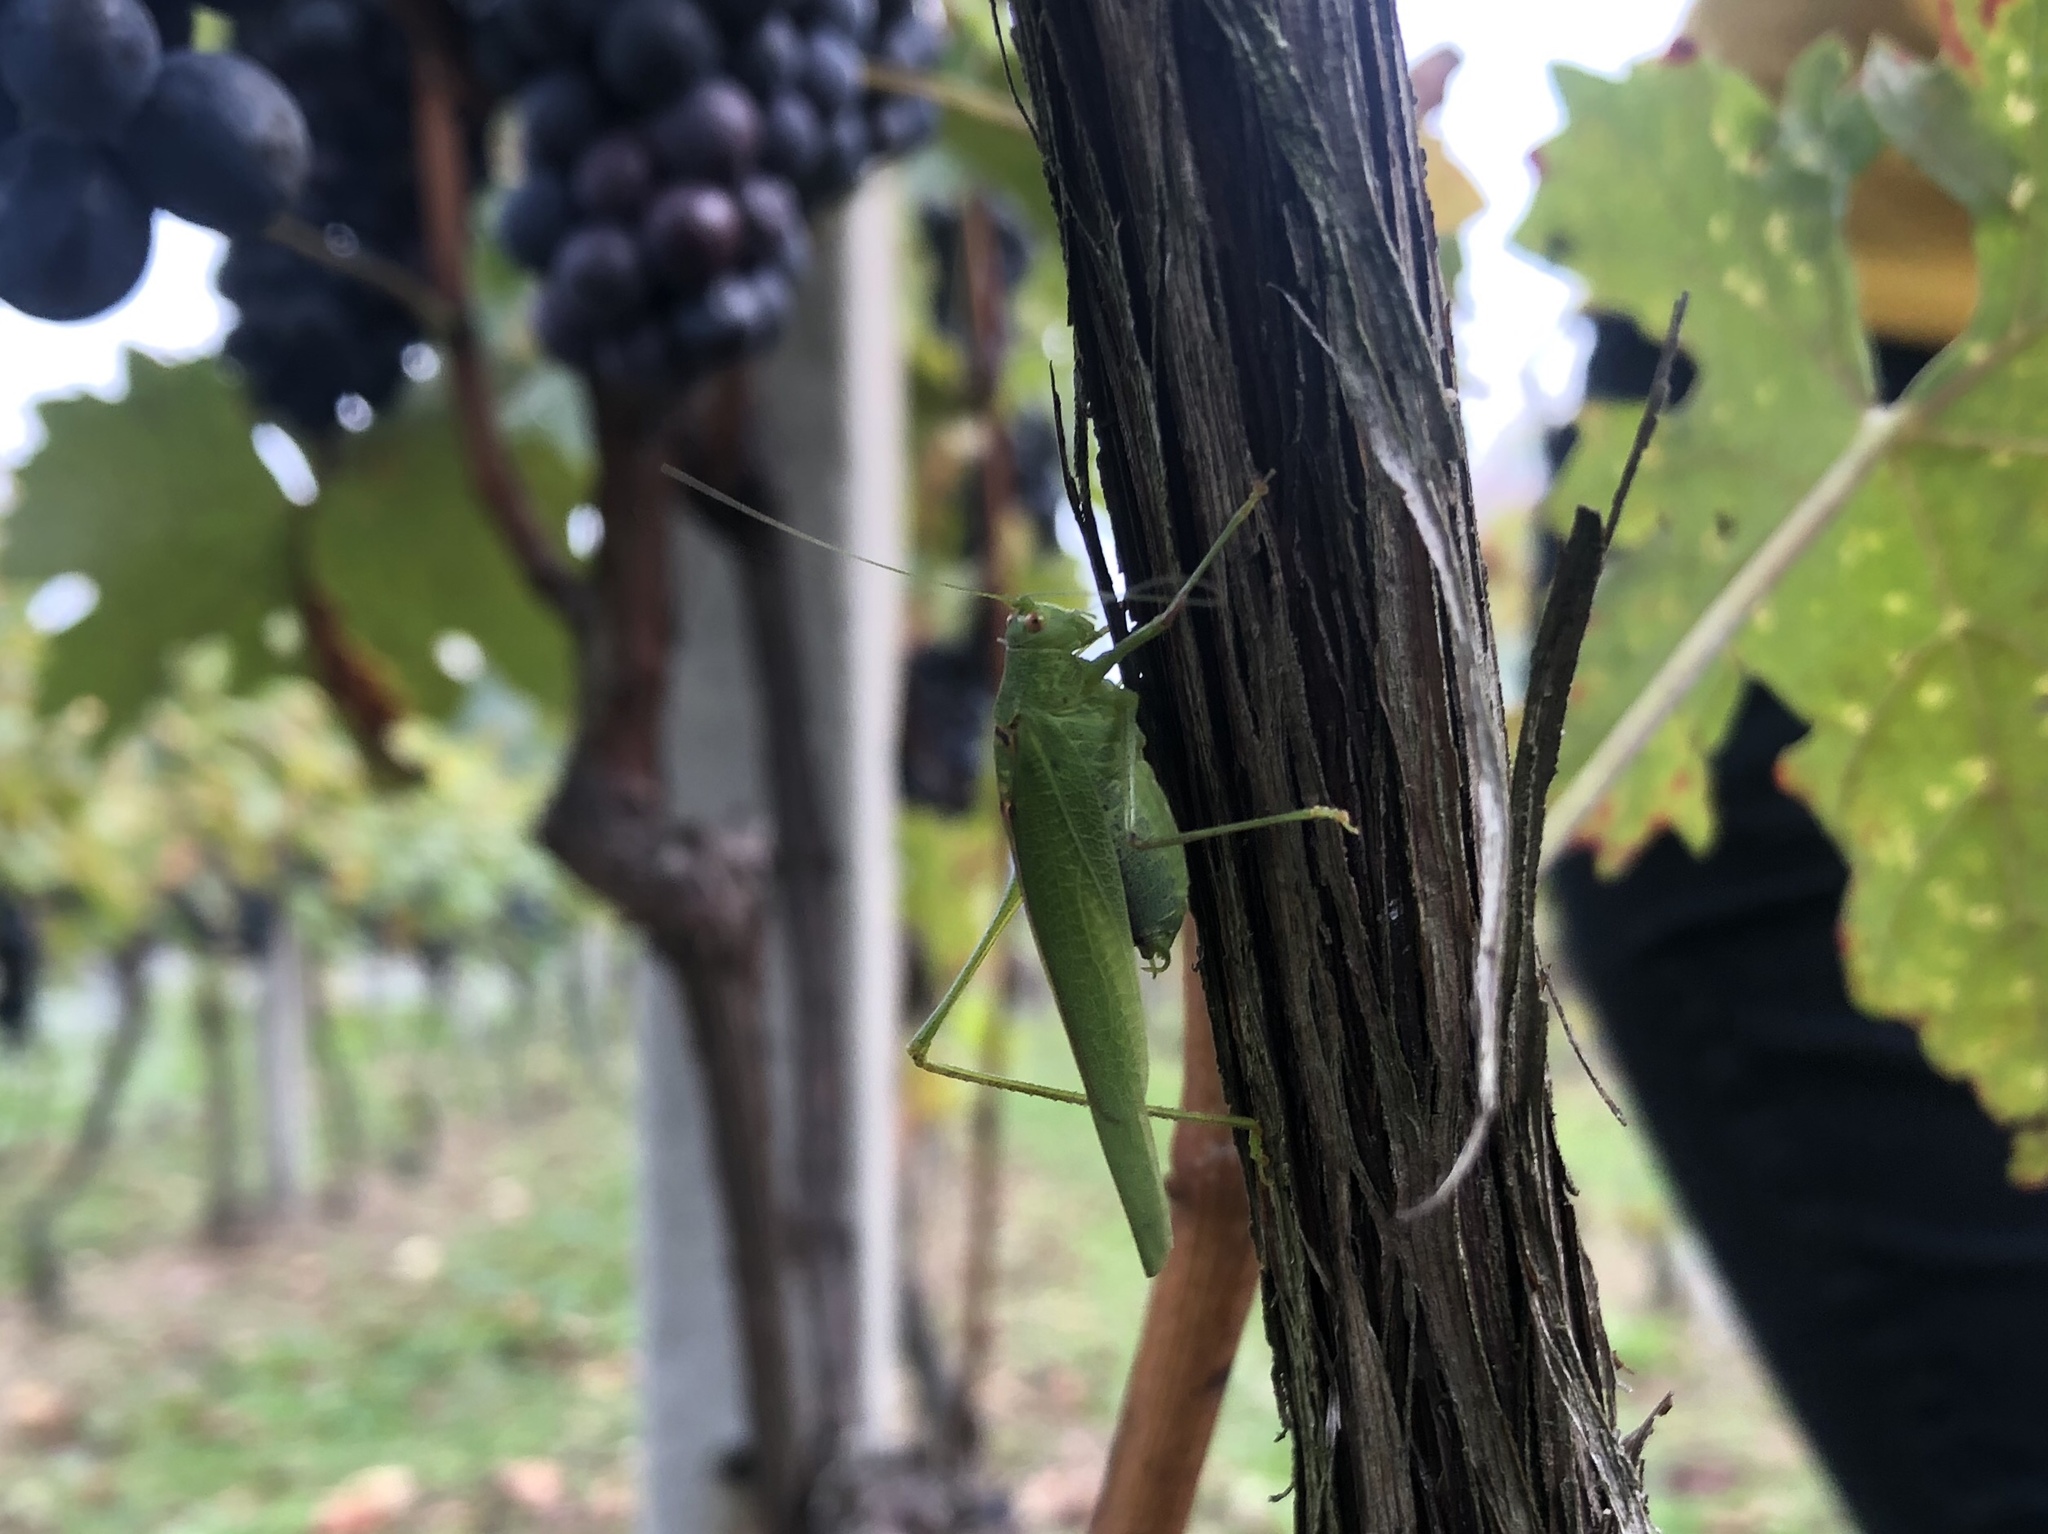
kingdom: Animalia
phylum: Arthropoda
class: Insecta
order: Orthoptera
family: Tettigoniidae
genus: Phaneroptera
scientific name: Phaneroptera nana
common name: Southern sickle bush-cricket
